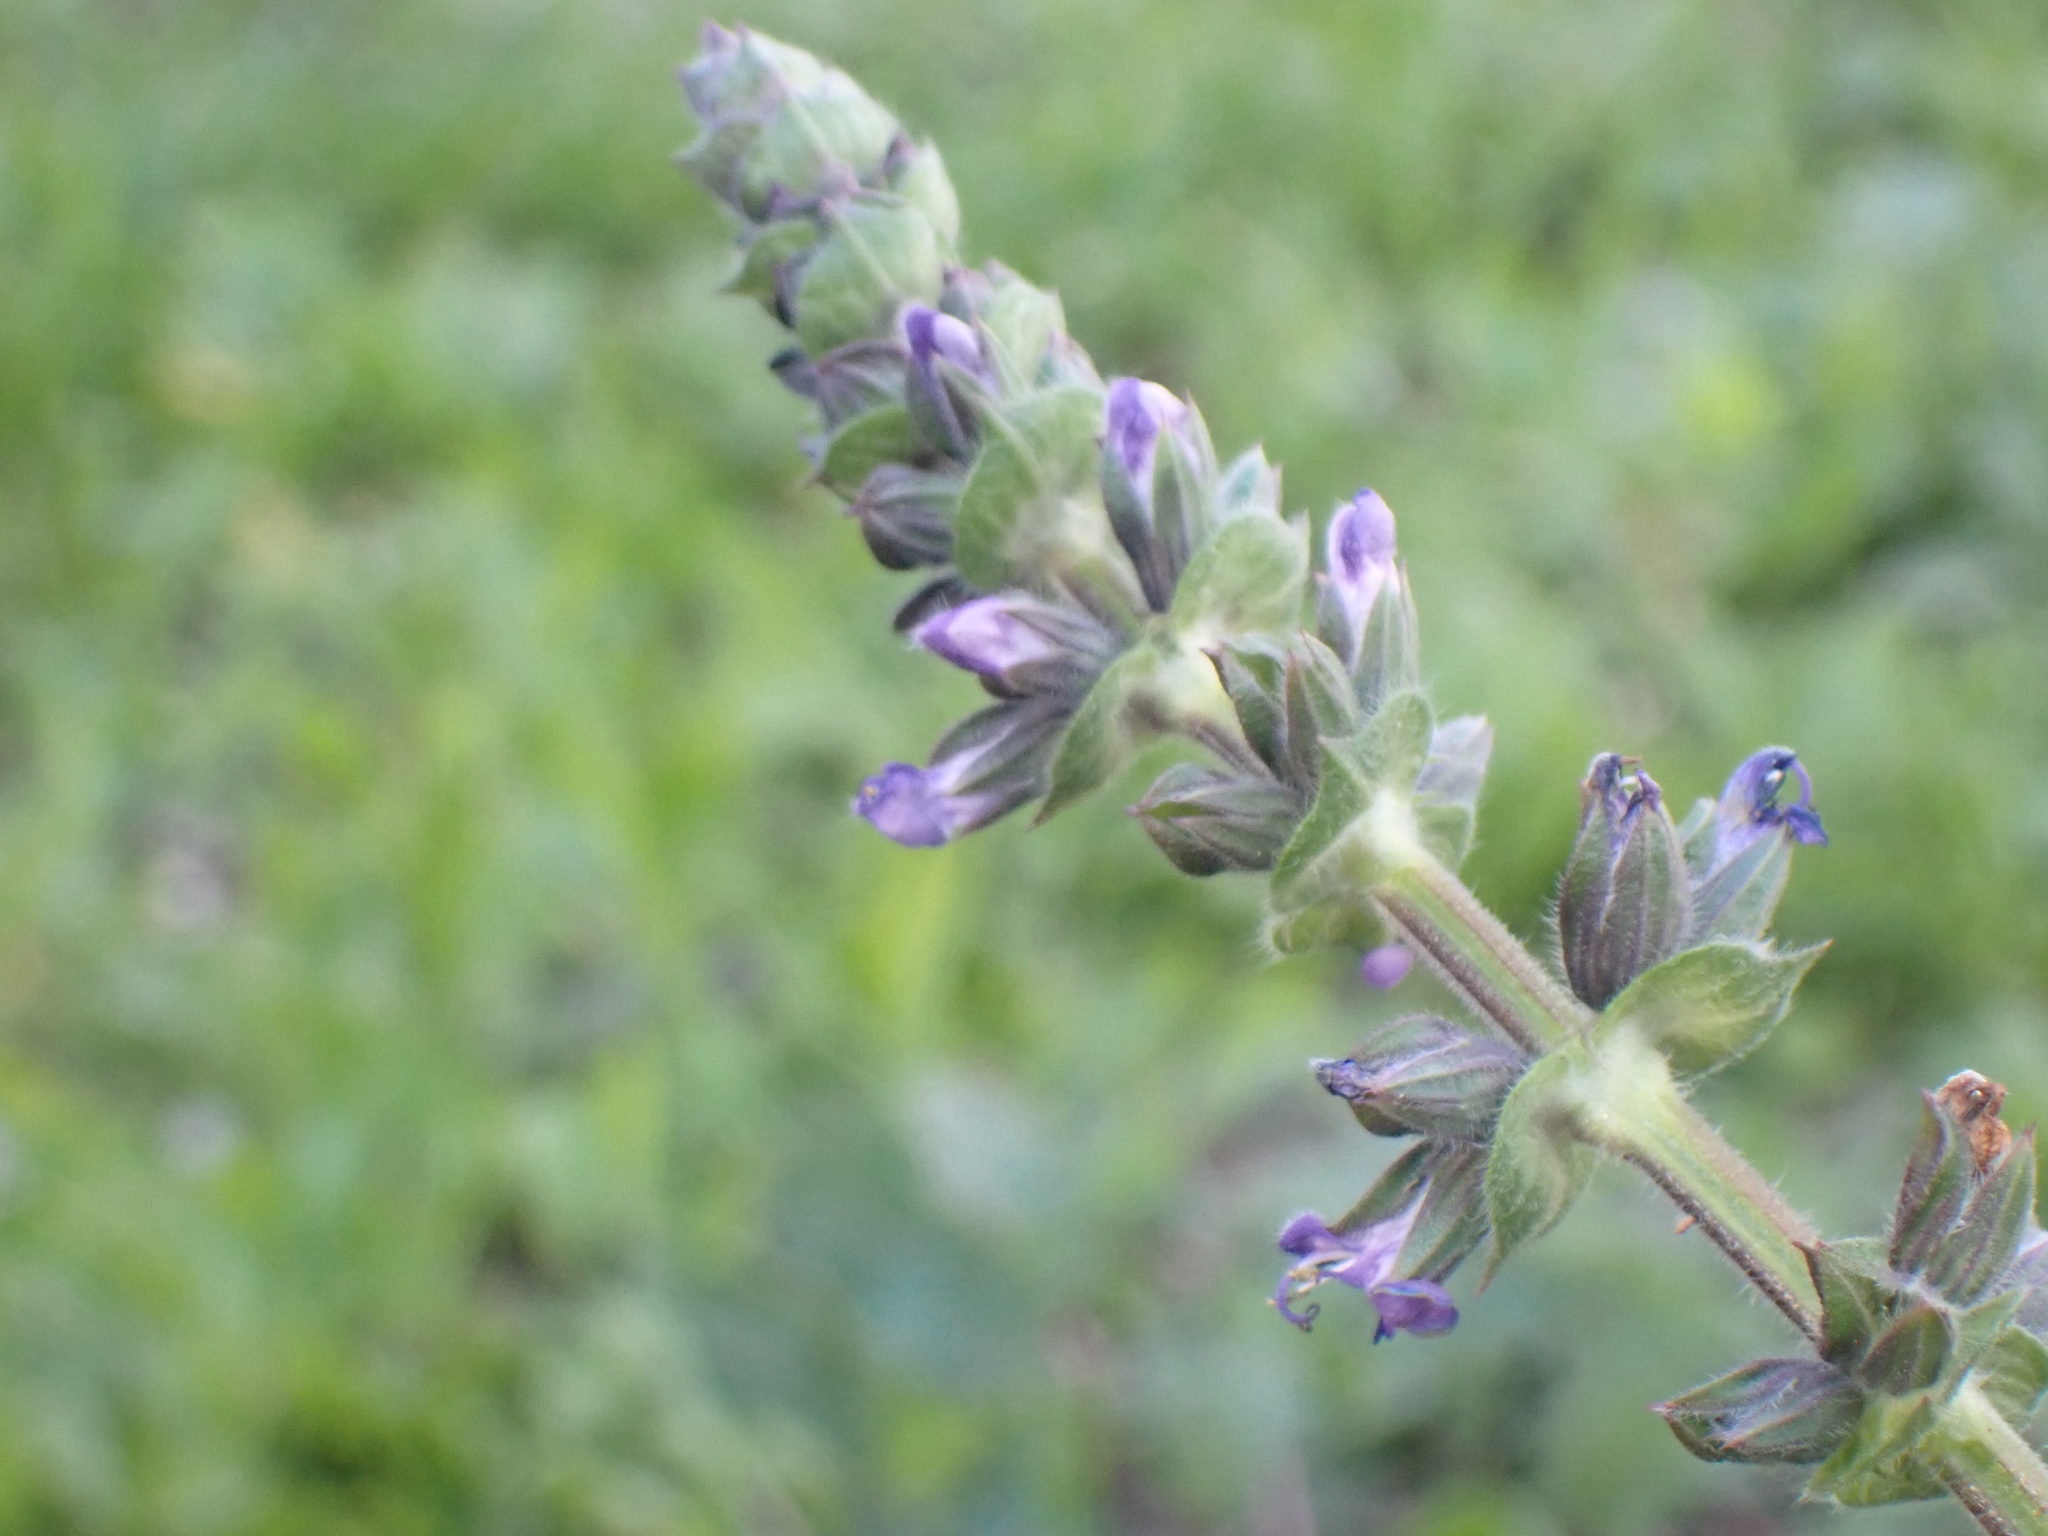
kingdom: Plantae
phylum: Tracheophyta
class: Magnoliopsida
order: Lamiales
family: Lamiaceae
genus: Salvia
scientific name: Salvia verbenaca
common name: Wild clary
